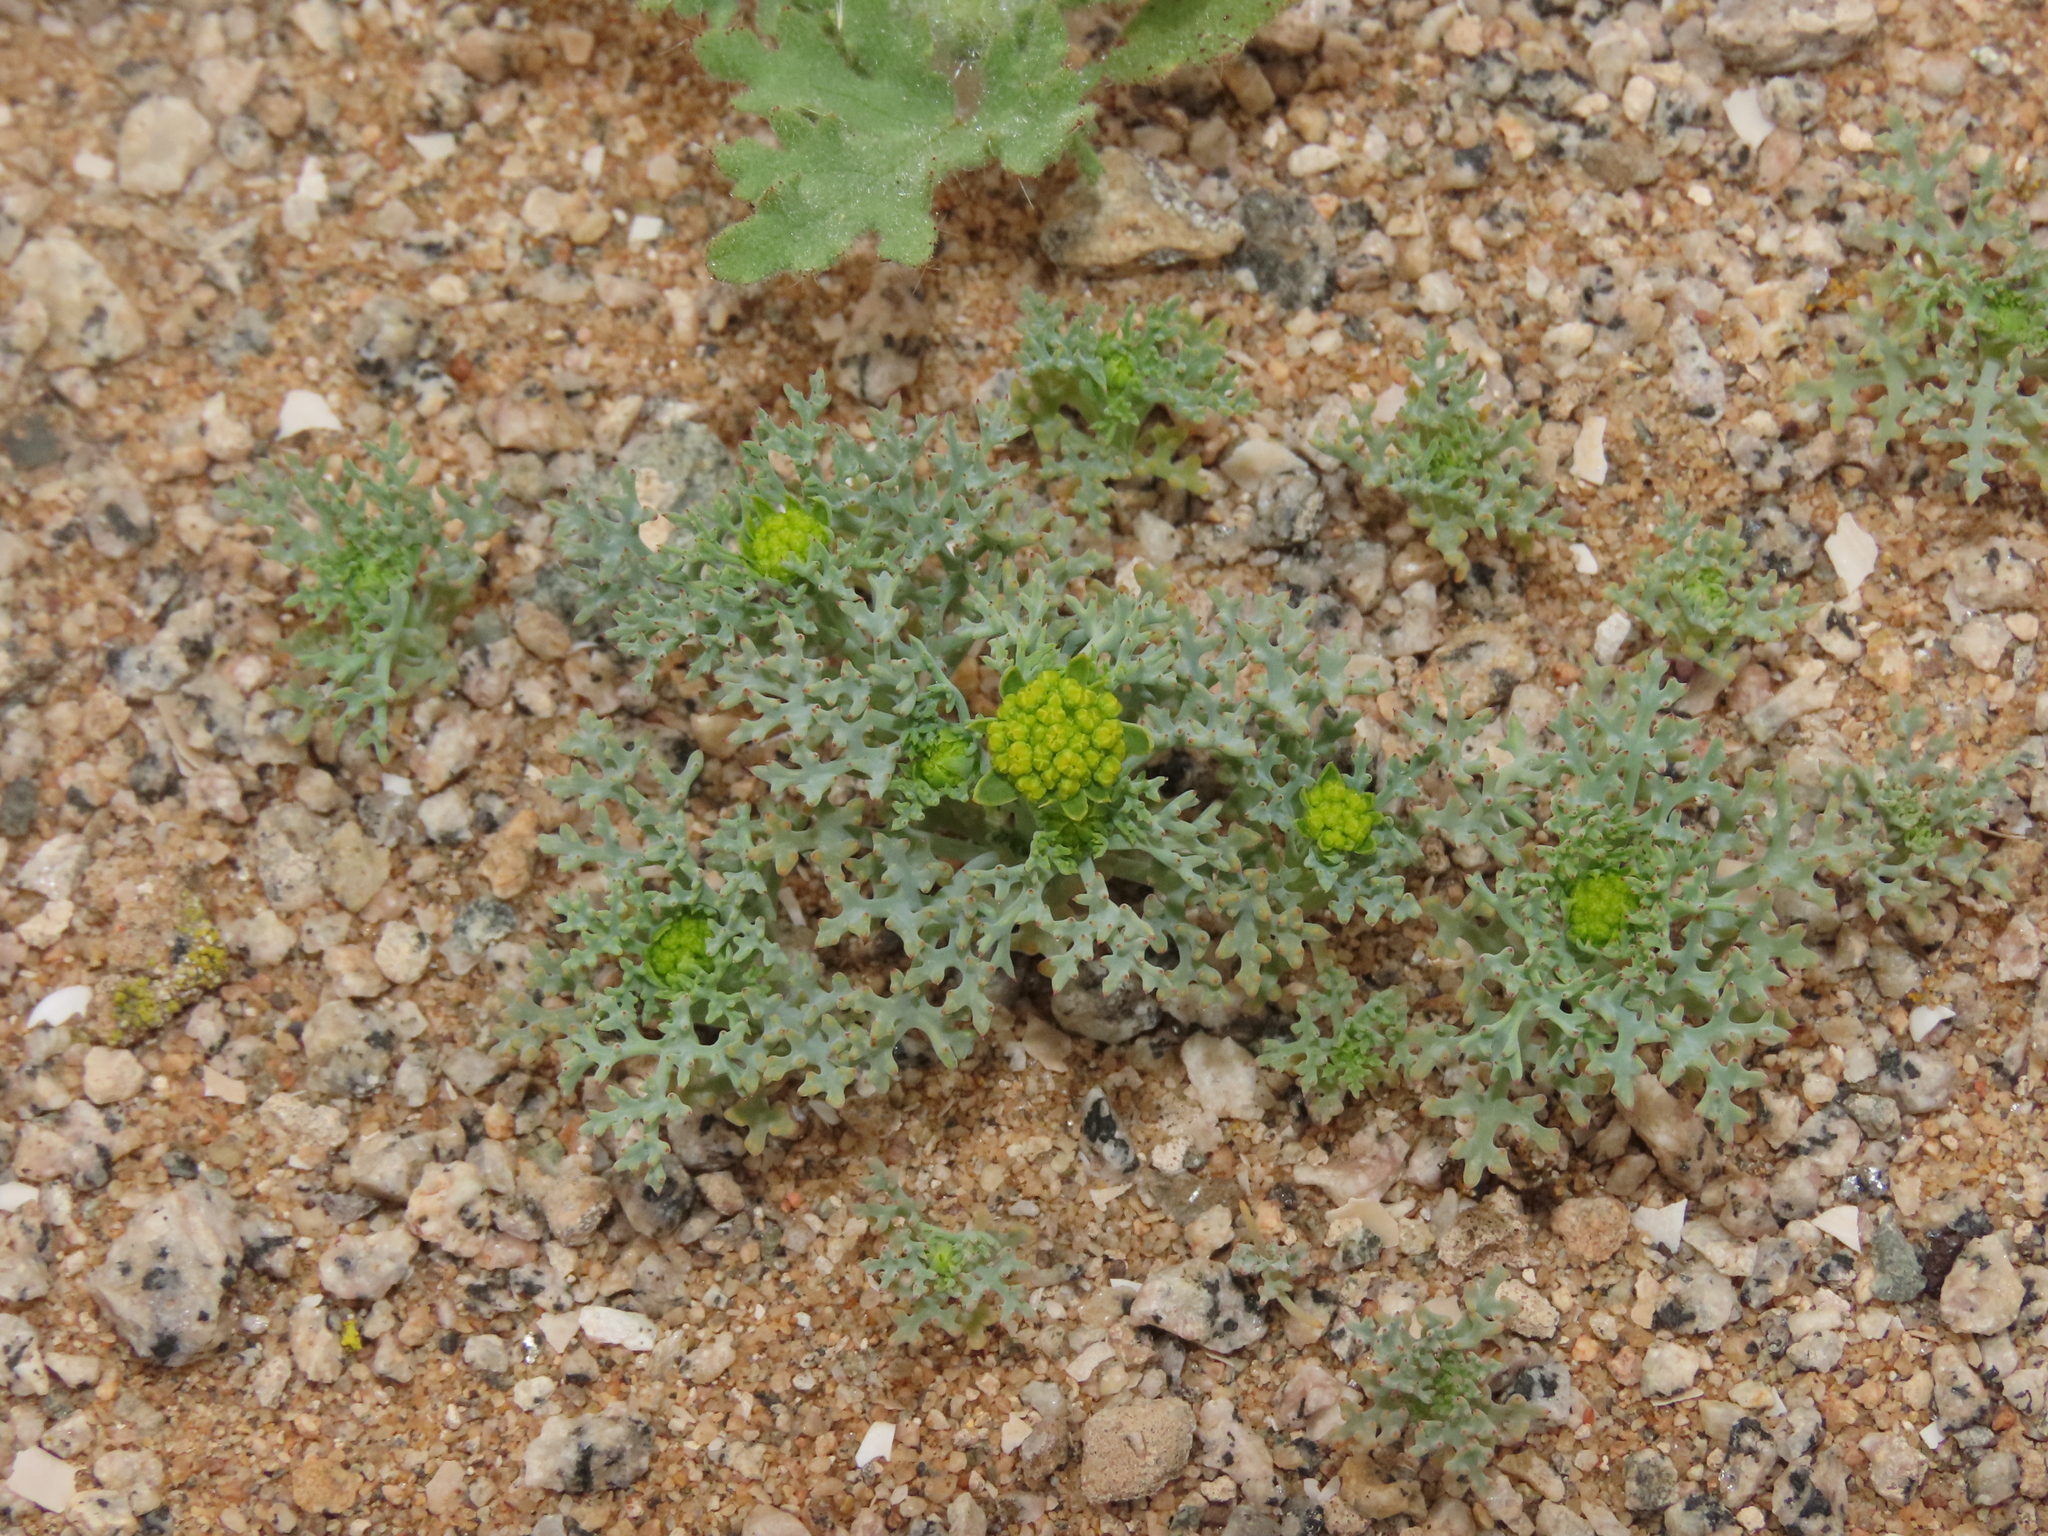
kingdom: Plantae
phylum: Tracheophyta
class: Magnoliopsida
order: Apiales
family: Apiaceae
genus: Asteriscium
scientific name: Asteriscium closii
